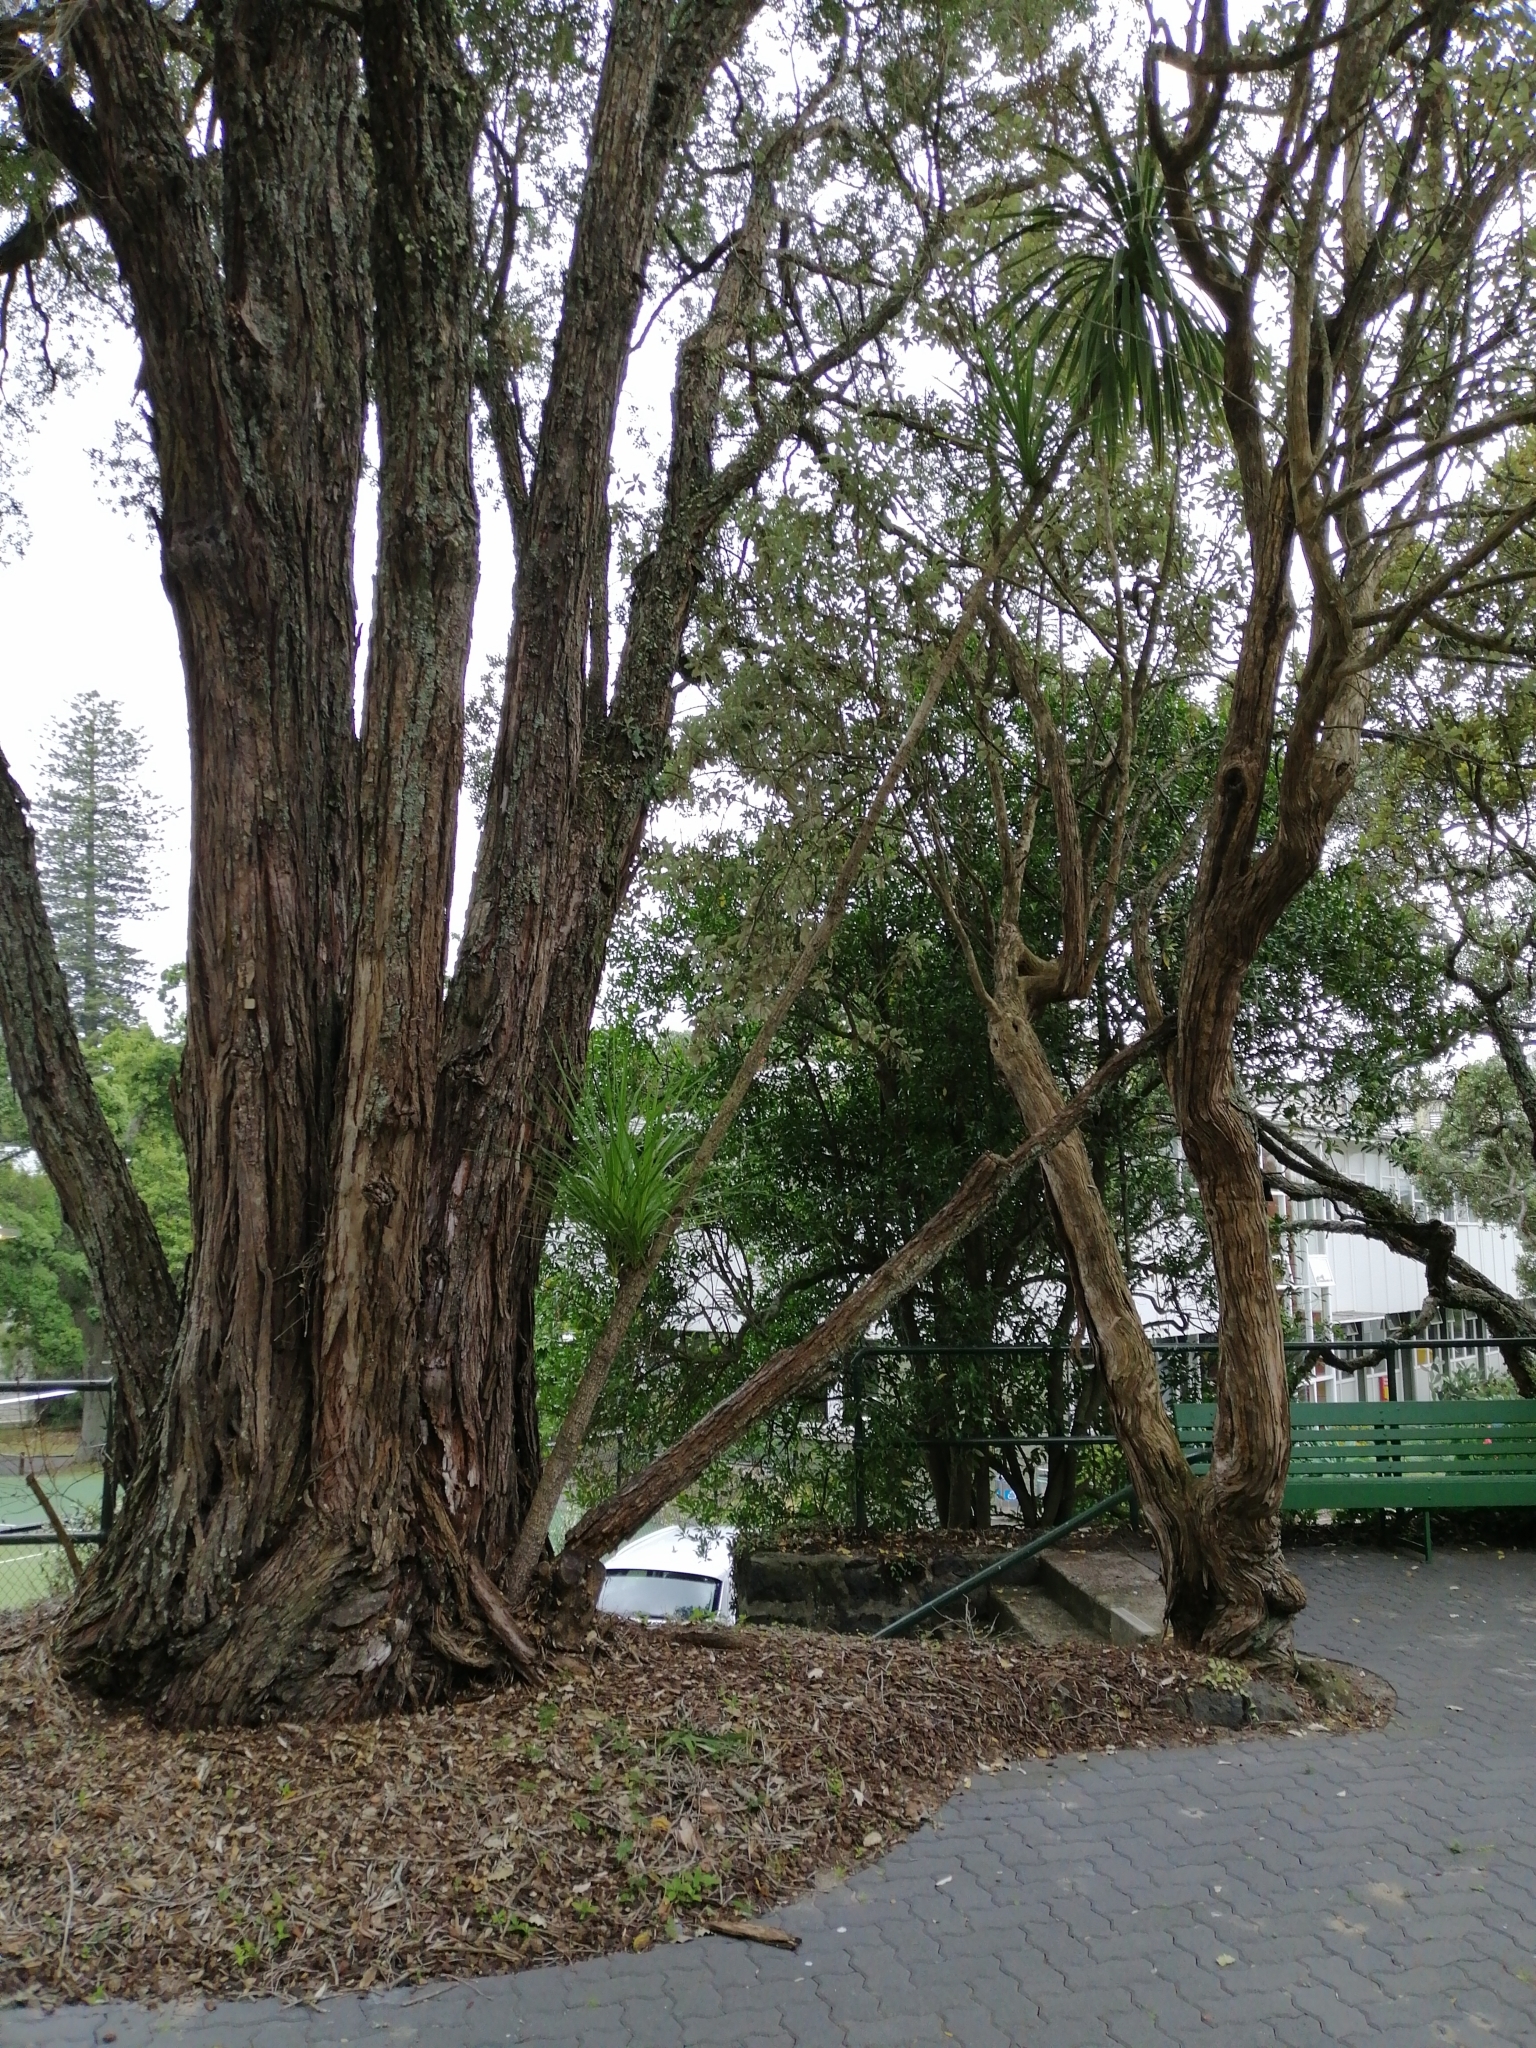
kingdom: Plantae
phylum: Tracheophyta
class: Liliopsida
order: Asparagales
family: Asparagaceae
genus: Cordyline
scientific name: Cordyline australis
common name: Cabbage-palm
